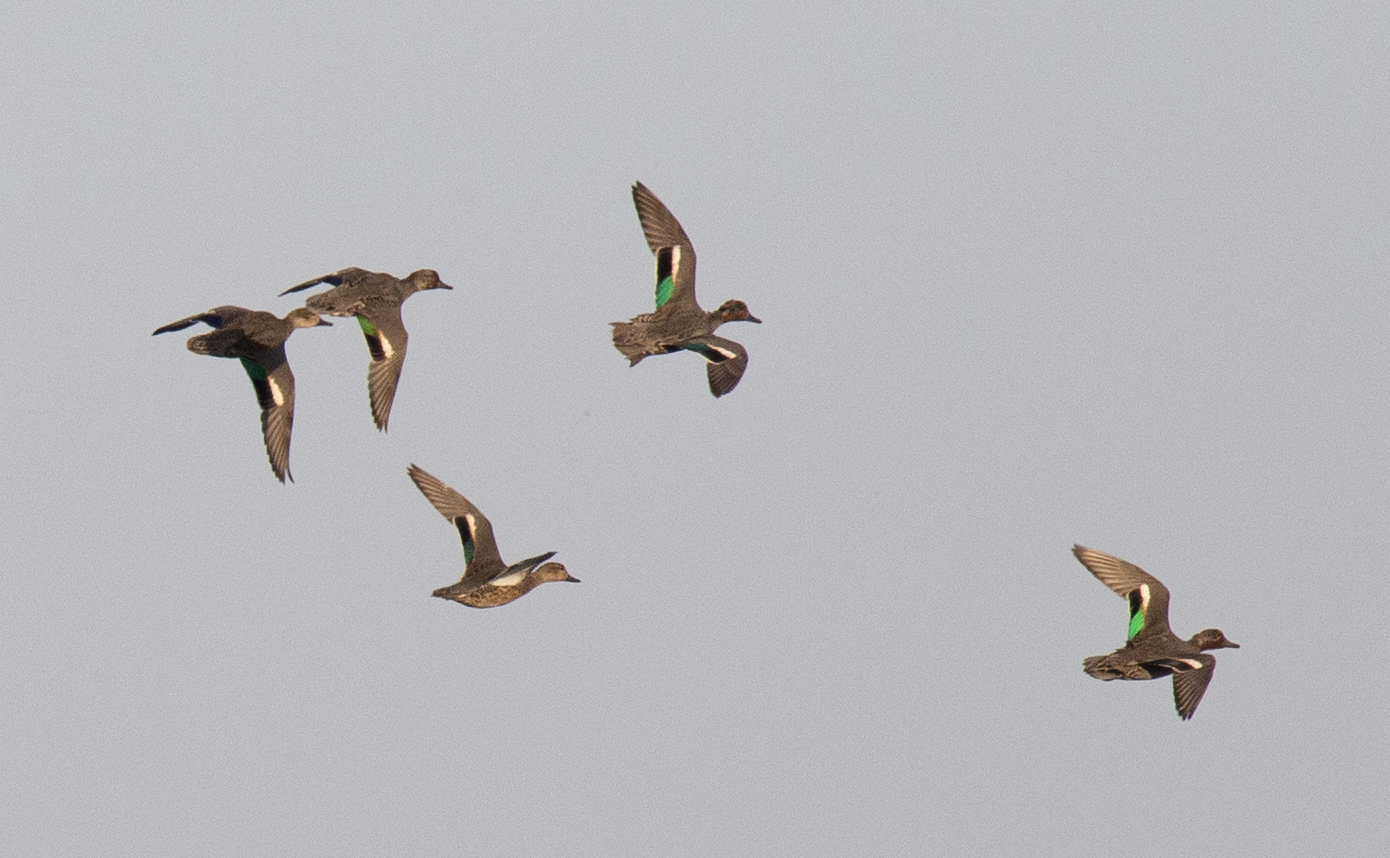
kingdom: Animalia
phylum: Chordata
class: Aves
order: Anseriformes
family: Anatidae
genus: Anas
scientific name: Anas crecca
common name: Eurasian teal
